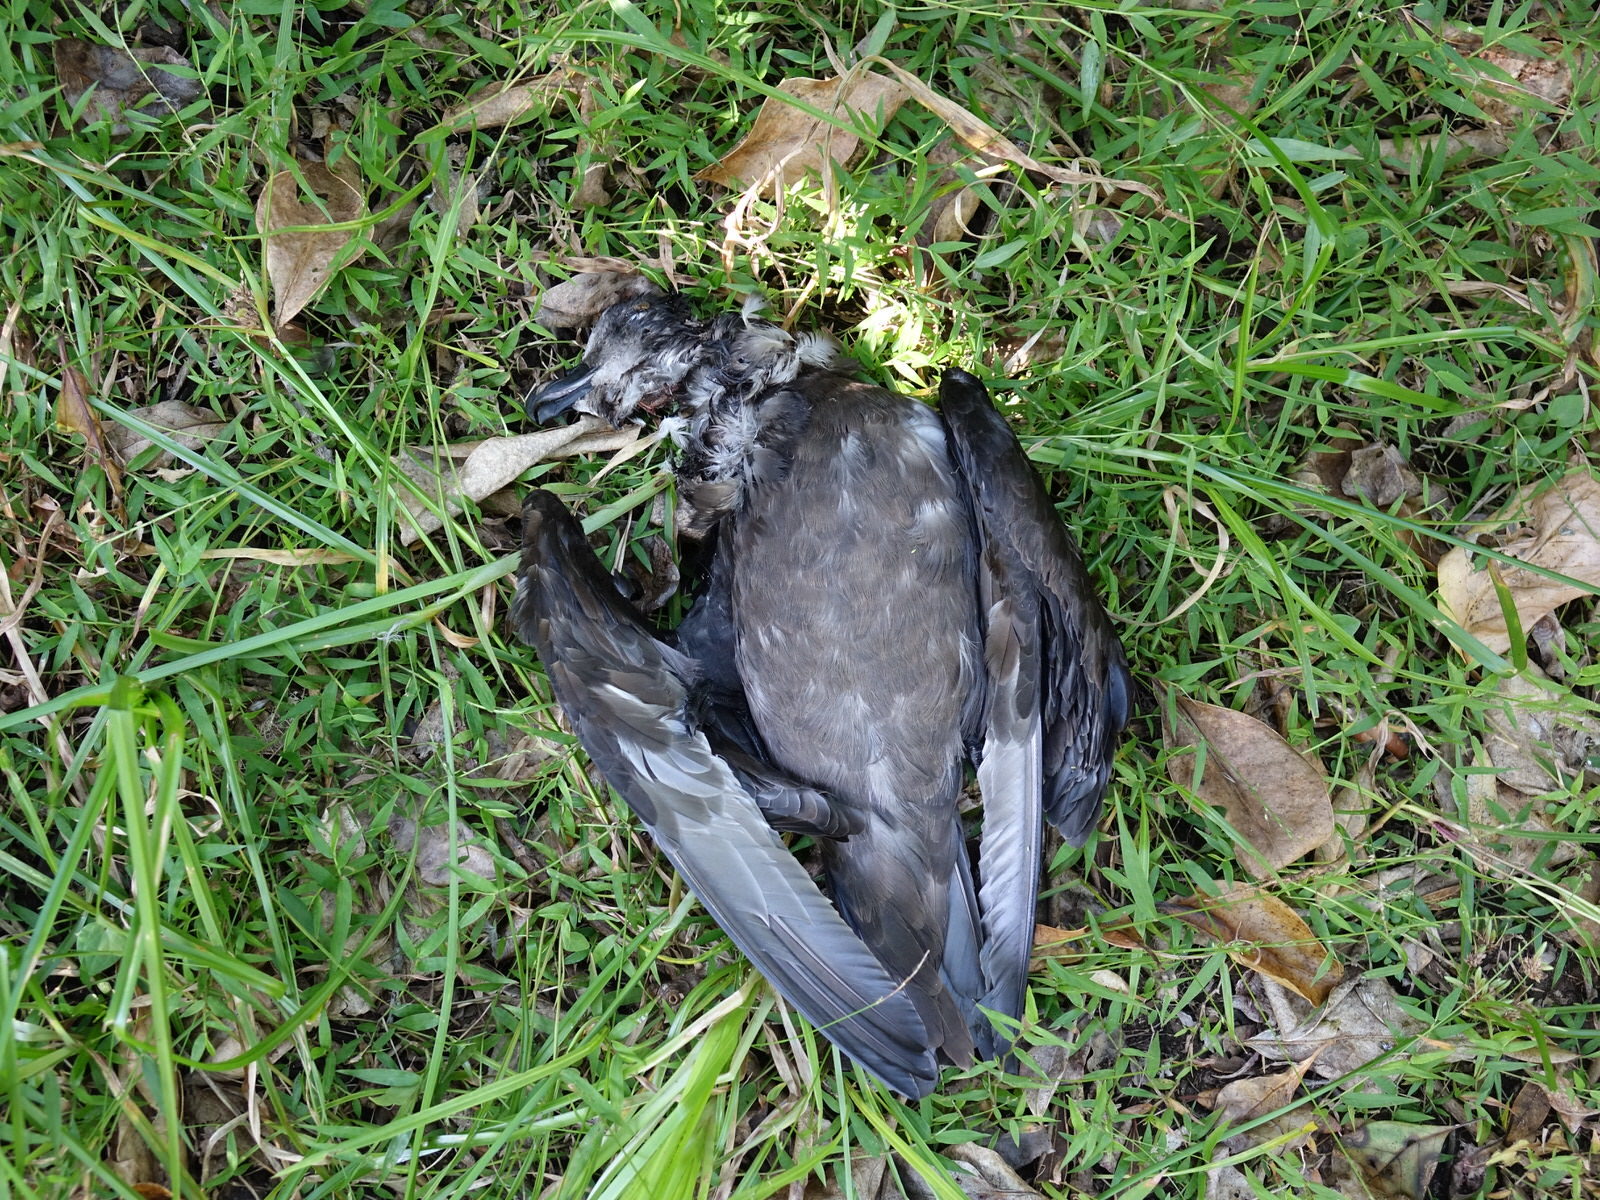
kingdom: Animalia
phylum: Chordata
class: Aves
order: Procellariiformes
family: Procellariidae
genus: Pterodroma
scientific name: Pterodroma macroptera
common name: Great-winged petrel
